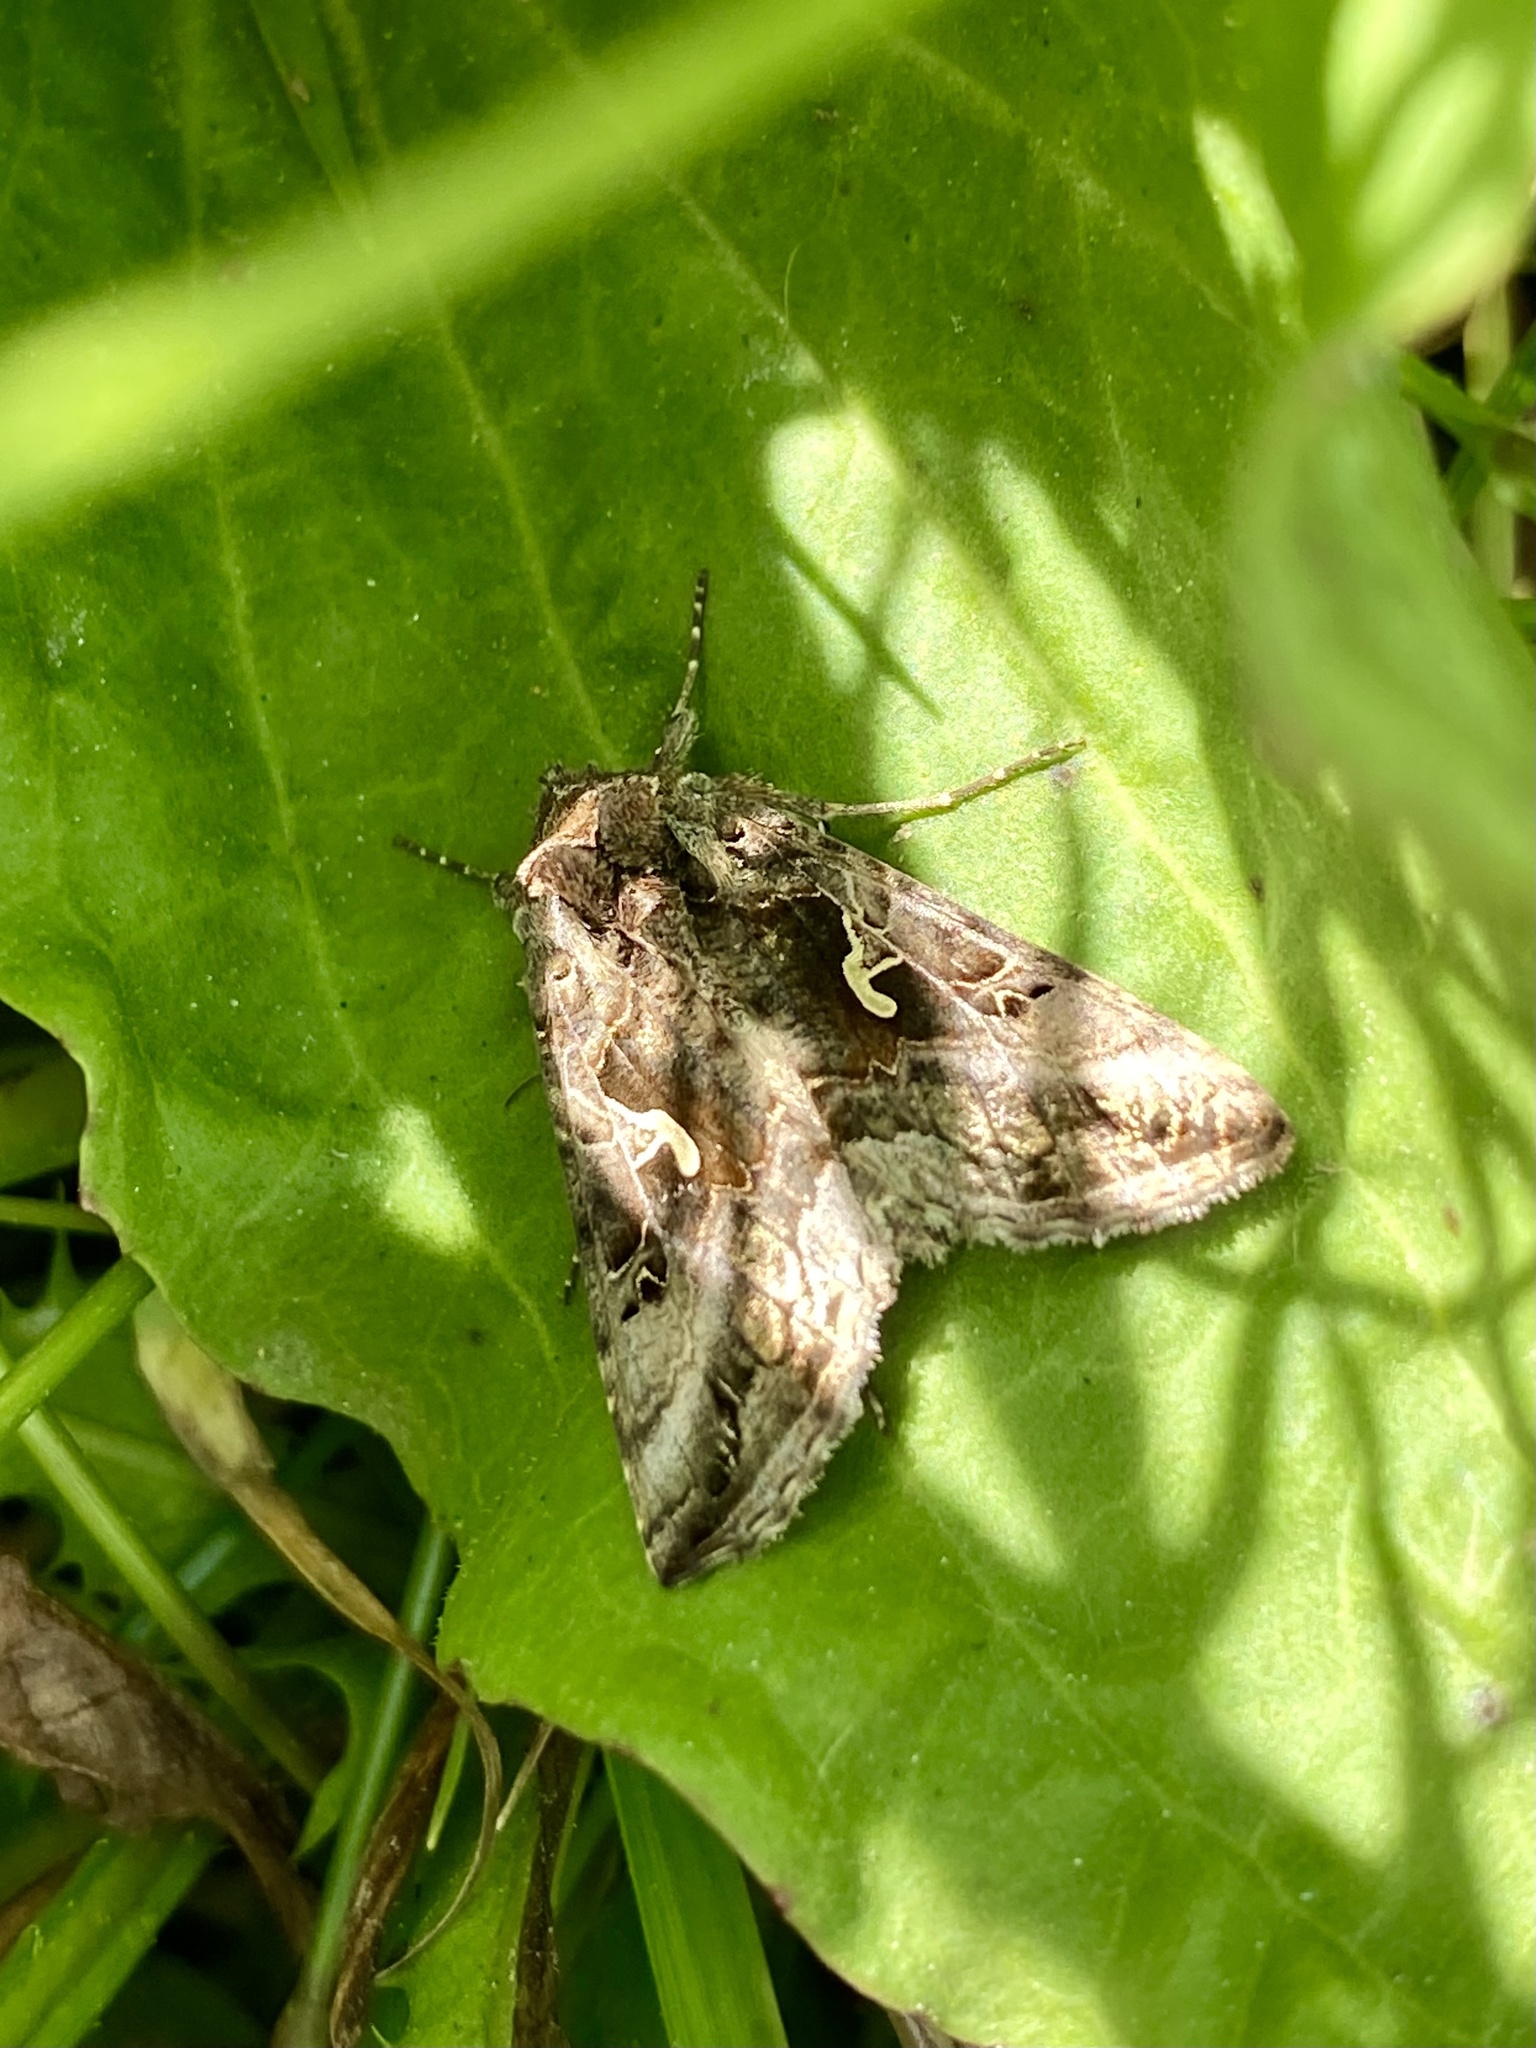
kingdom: Animalia
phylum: Arthropoda
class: Insecta
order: Lepidoptera
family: Noctuidae
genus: Autographa
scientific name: Autographa gamma
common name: Silver y
